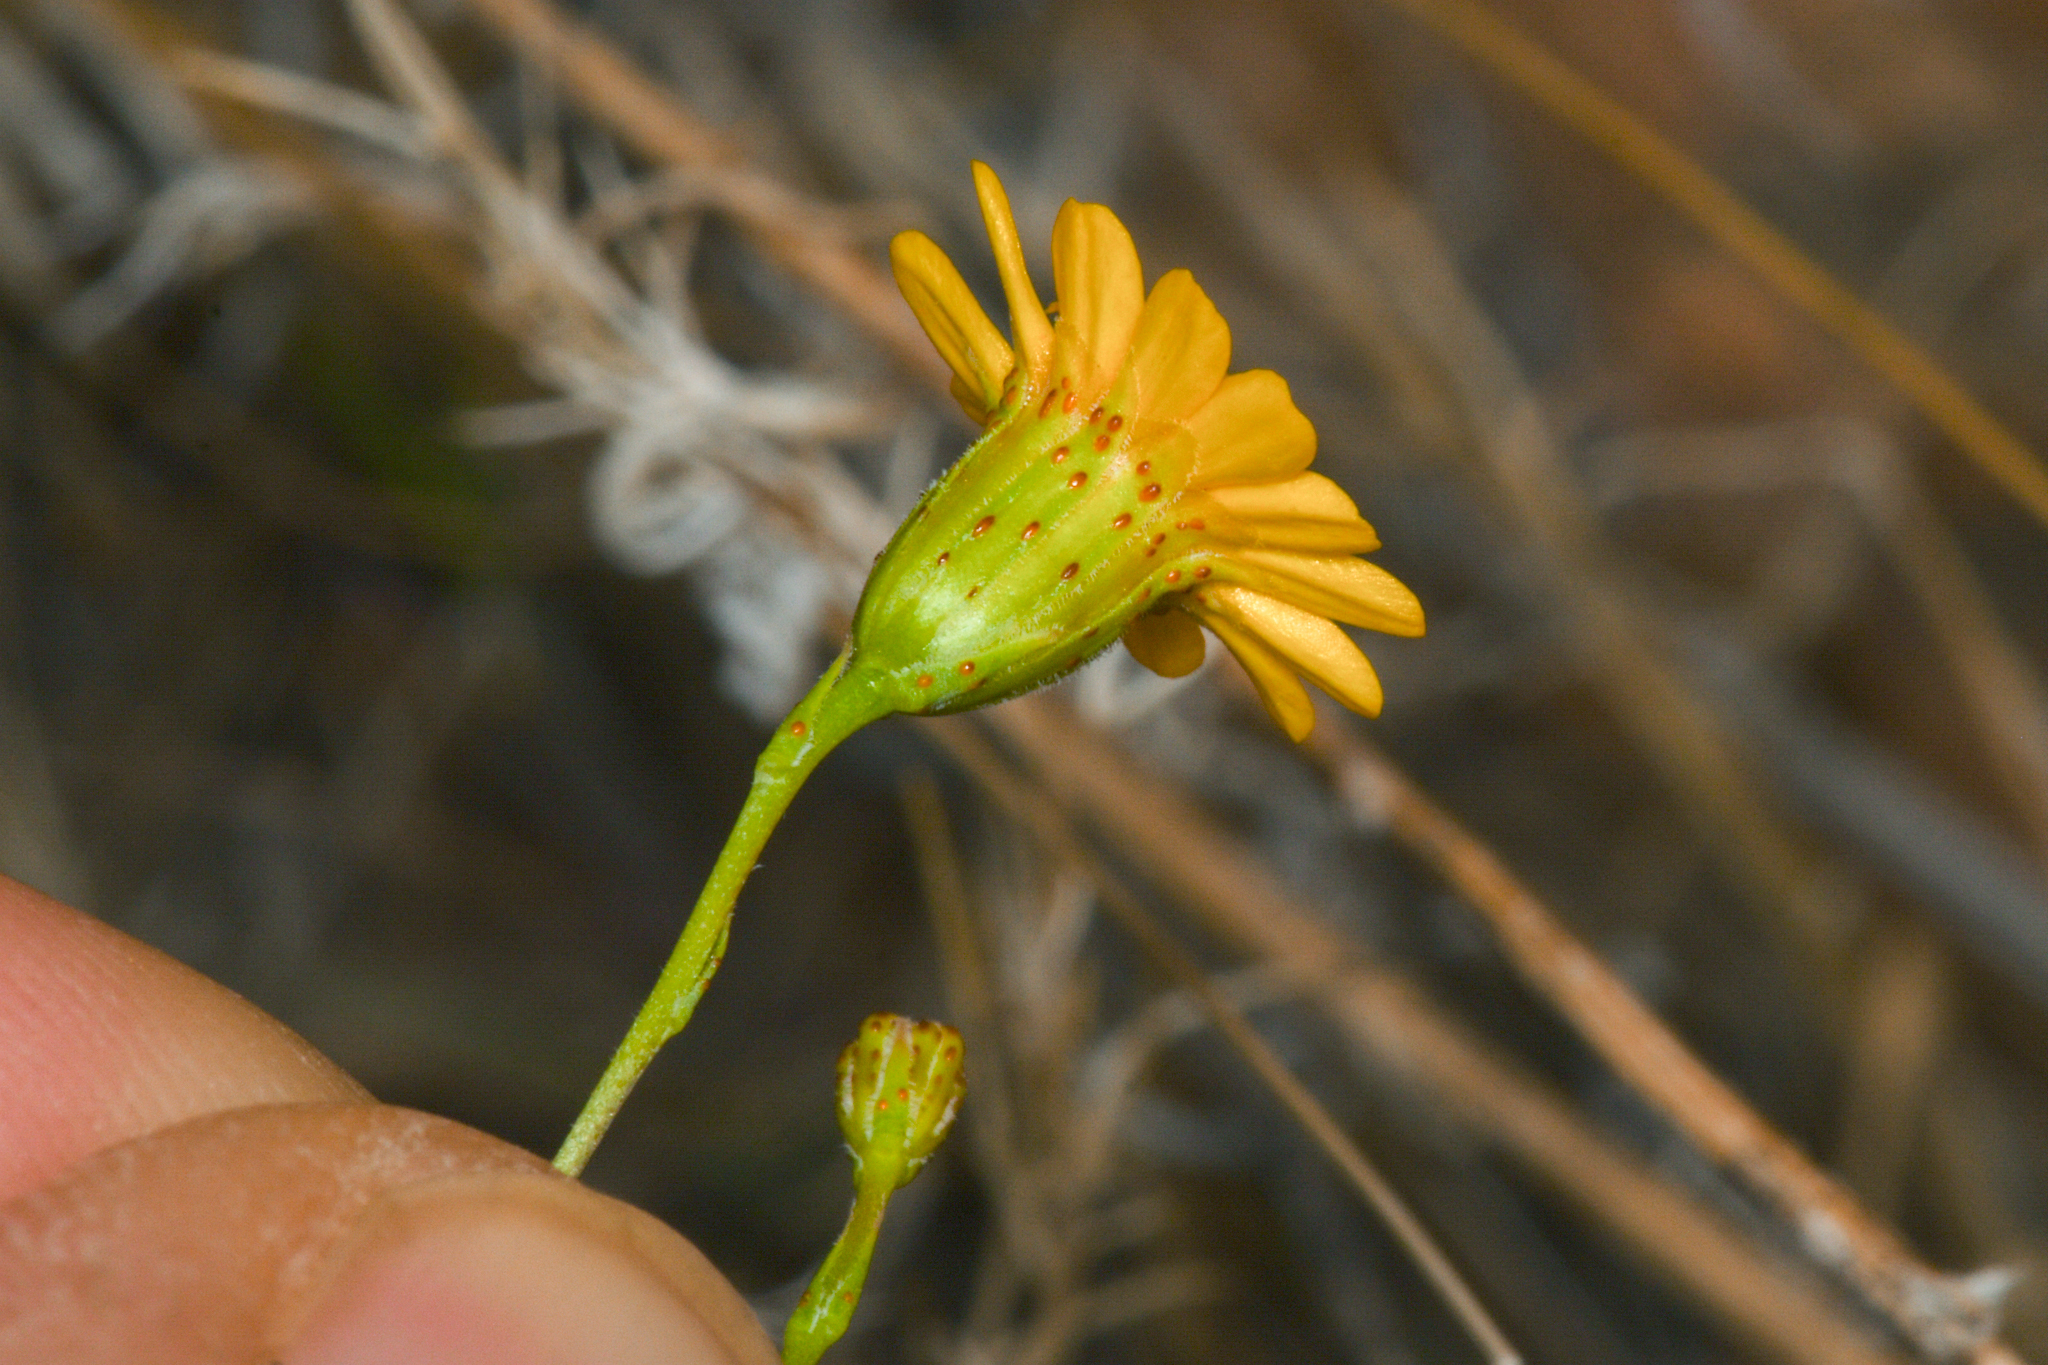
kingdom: Plantae
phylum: Tracheophyta
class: Magnoliopsida
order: Asterales
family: Asteraceae
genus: Thymophylla
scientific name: Thymophylla pentachaeta
